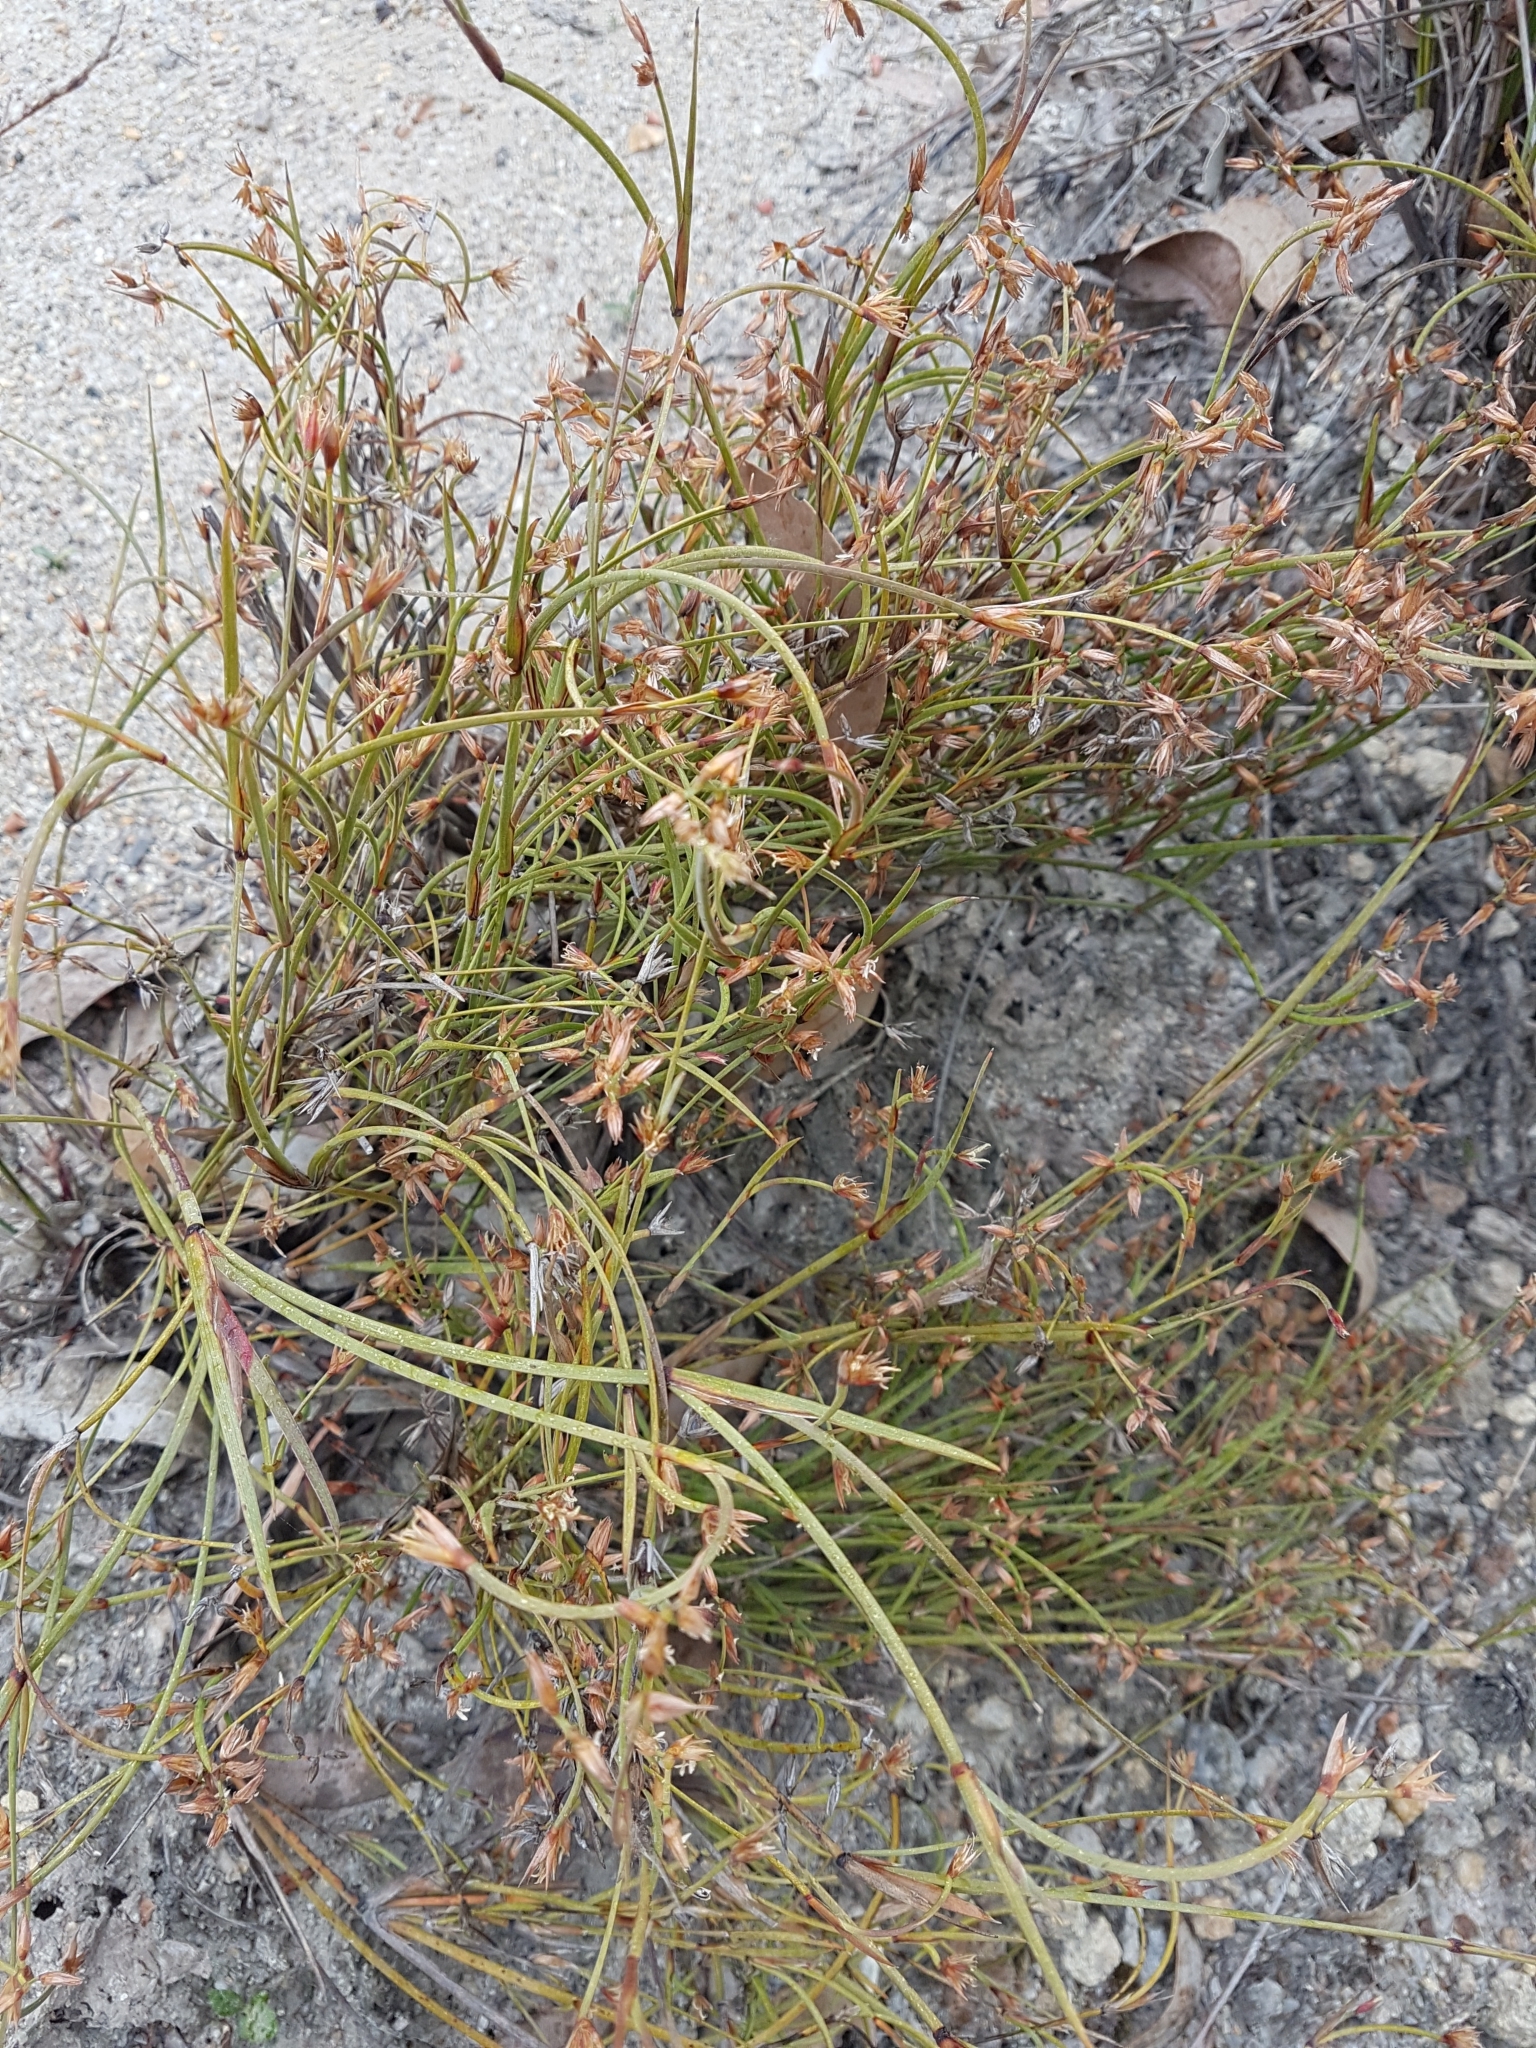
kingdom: Plantae
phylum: Tracheophyta
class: Liliopsida
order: Poales
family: Restionaceae
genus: Anarthria
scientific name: Anarthria prolifera
